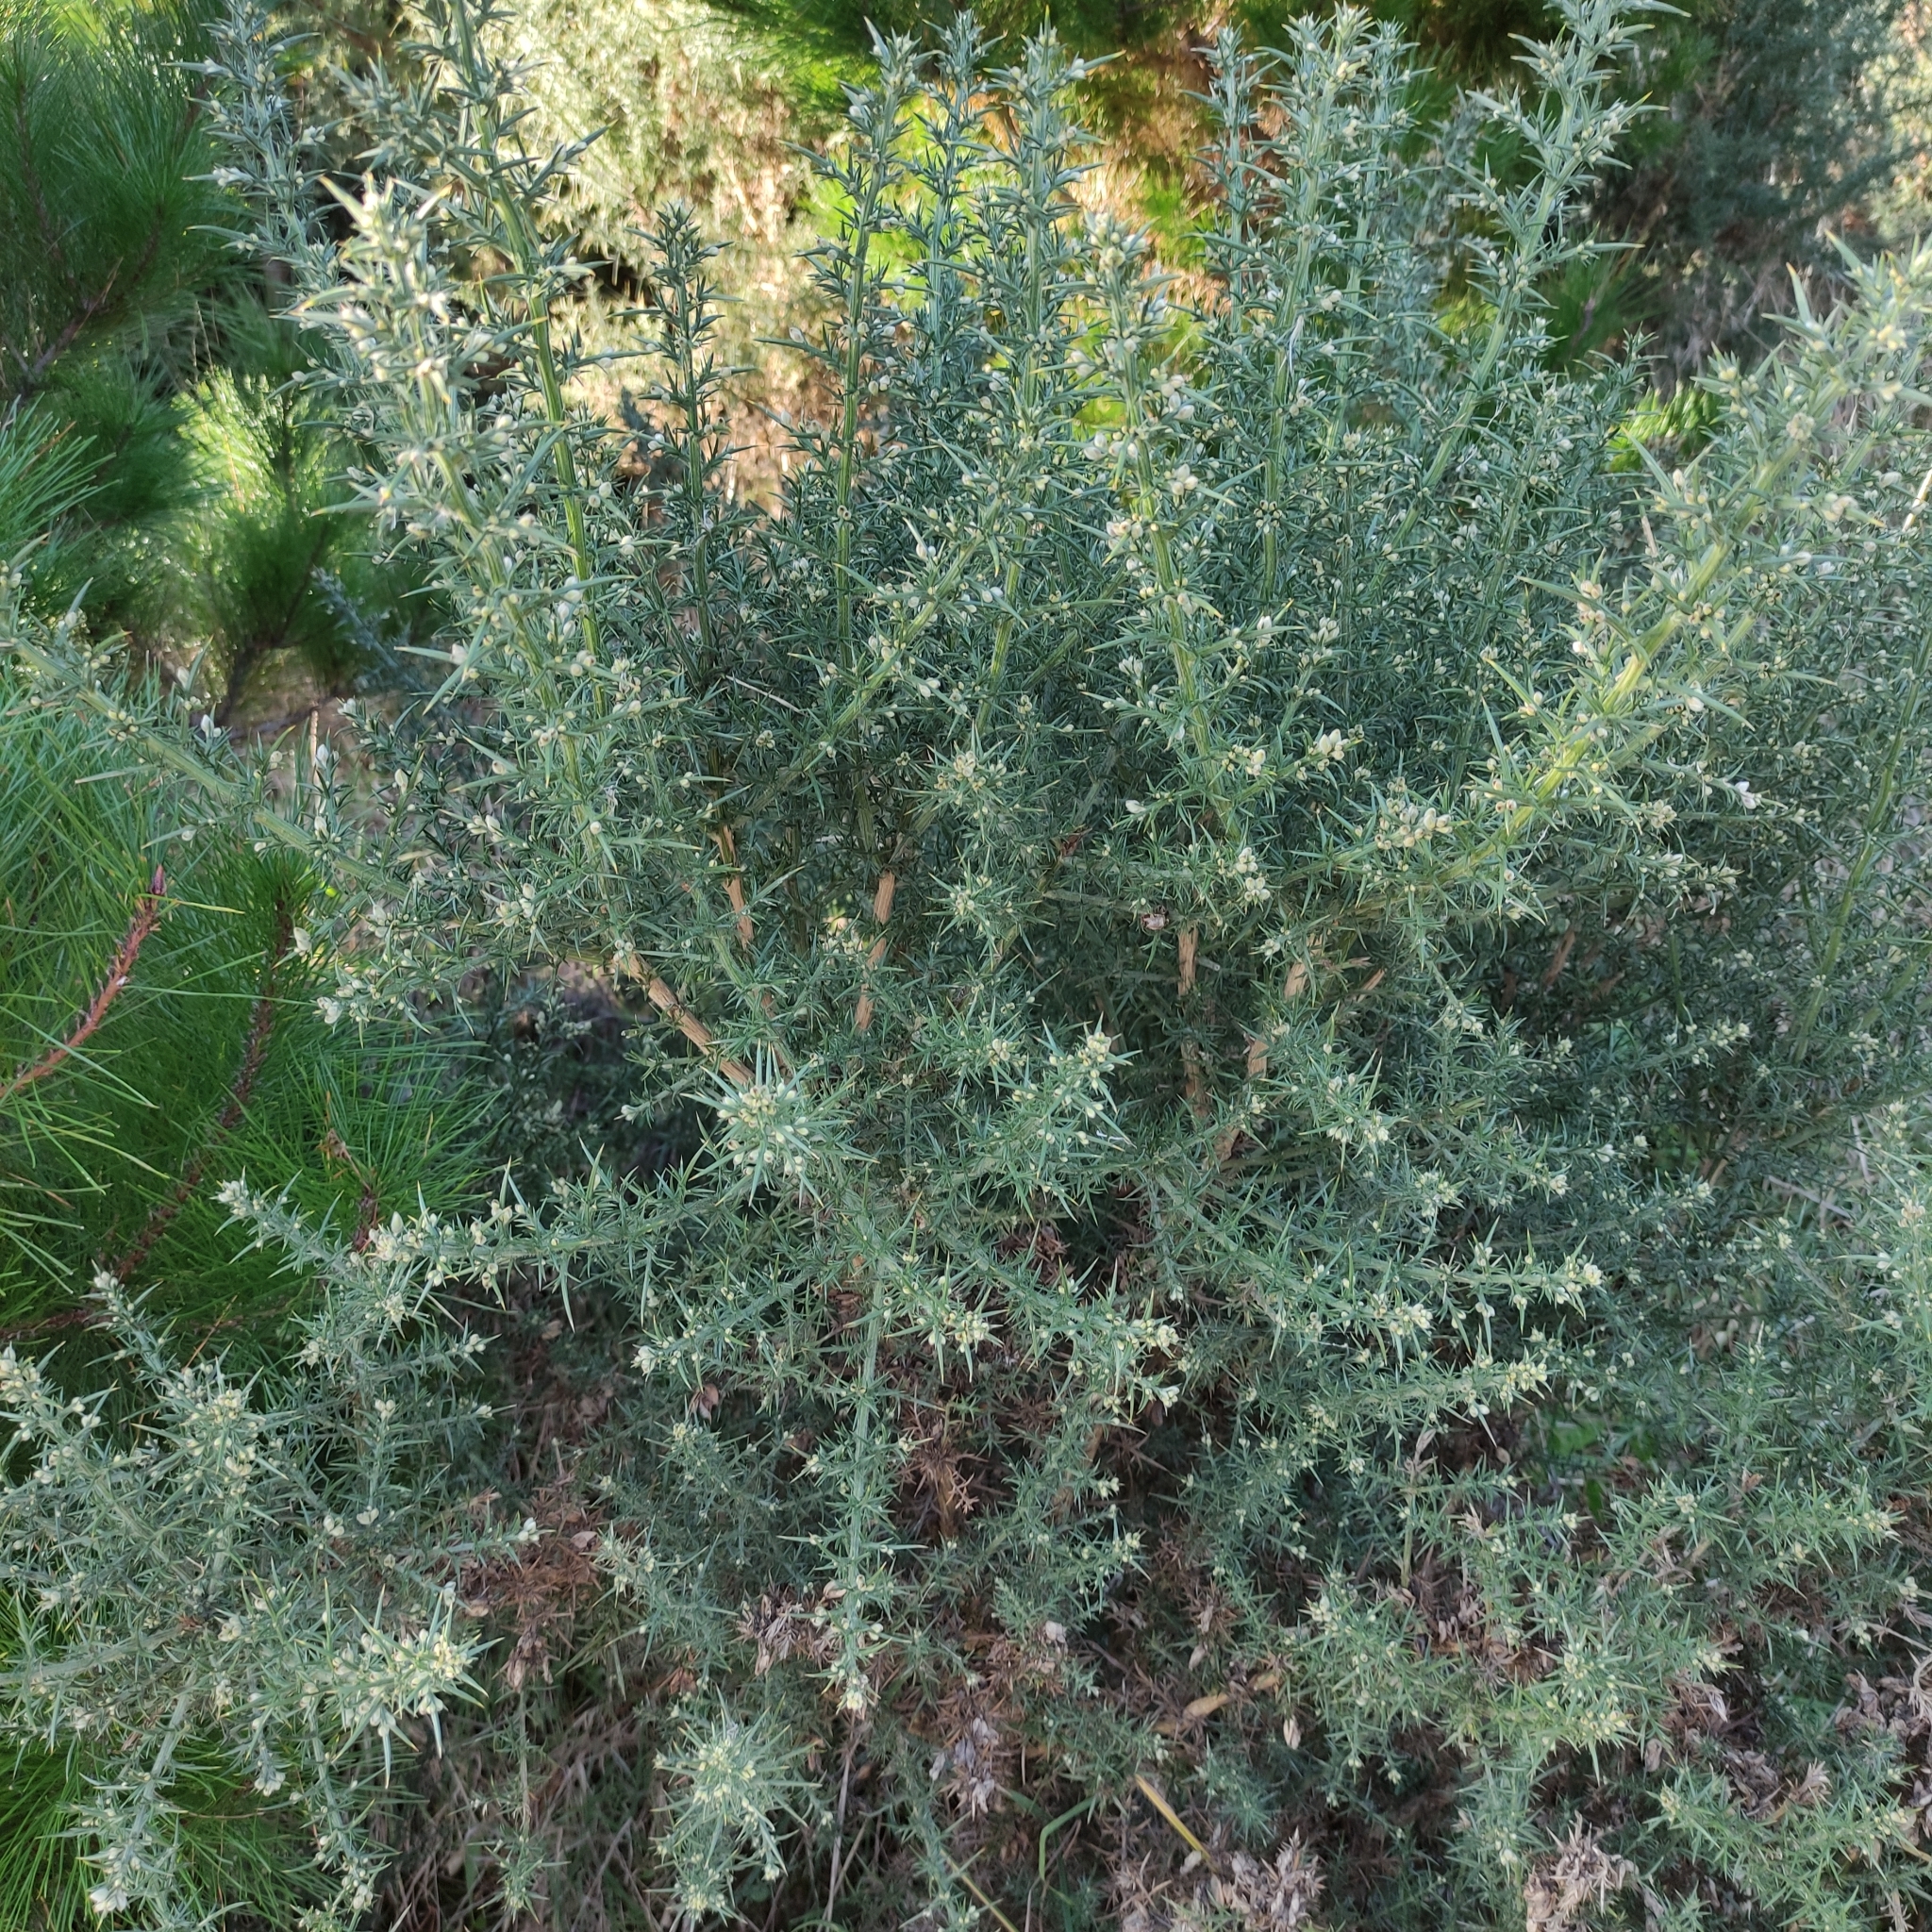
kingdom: Plantae
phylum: Tracheophyta
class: Magnoliopsida
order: Fabales
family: Fabaceae
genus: Ulex
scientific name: Ulex europaeus
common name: Common gorse
